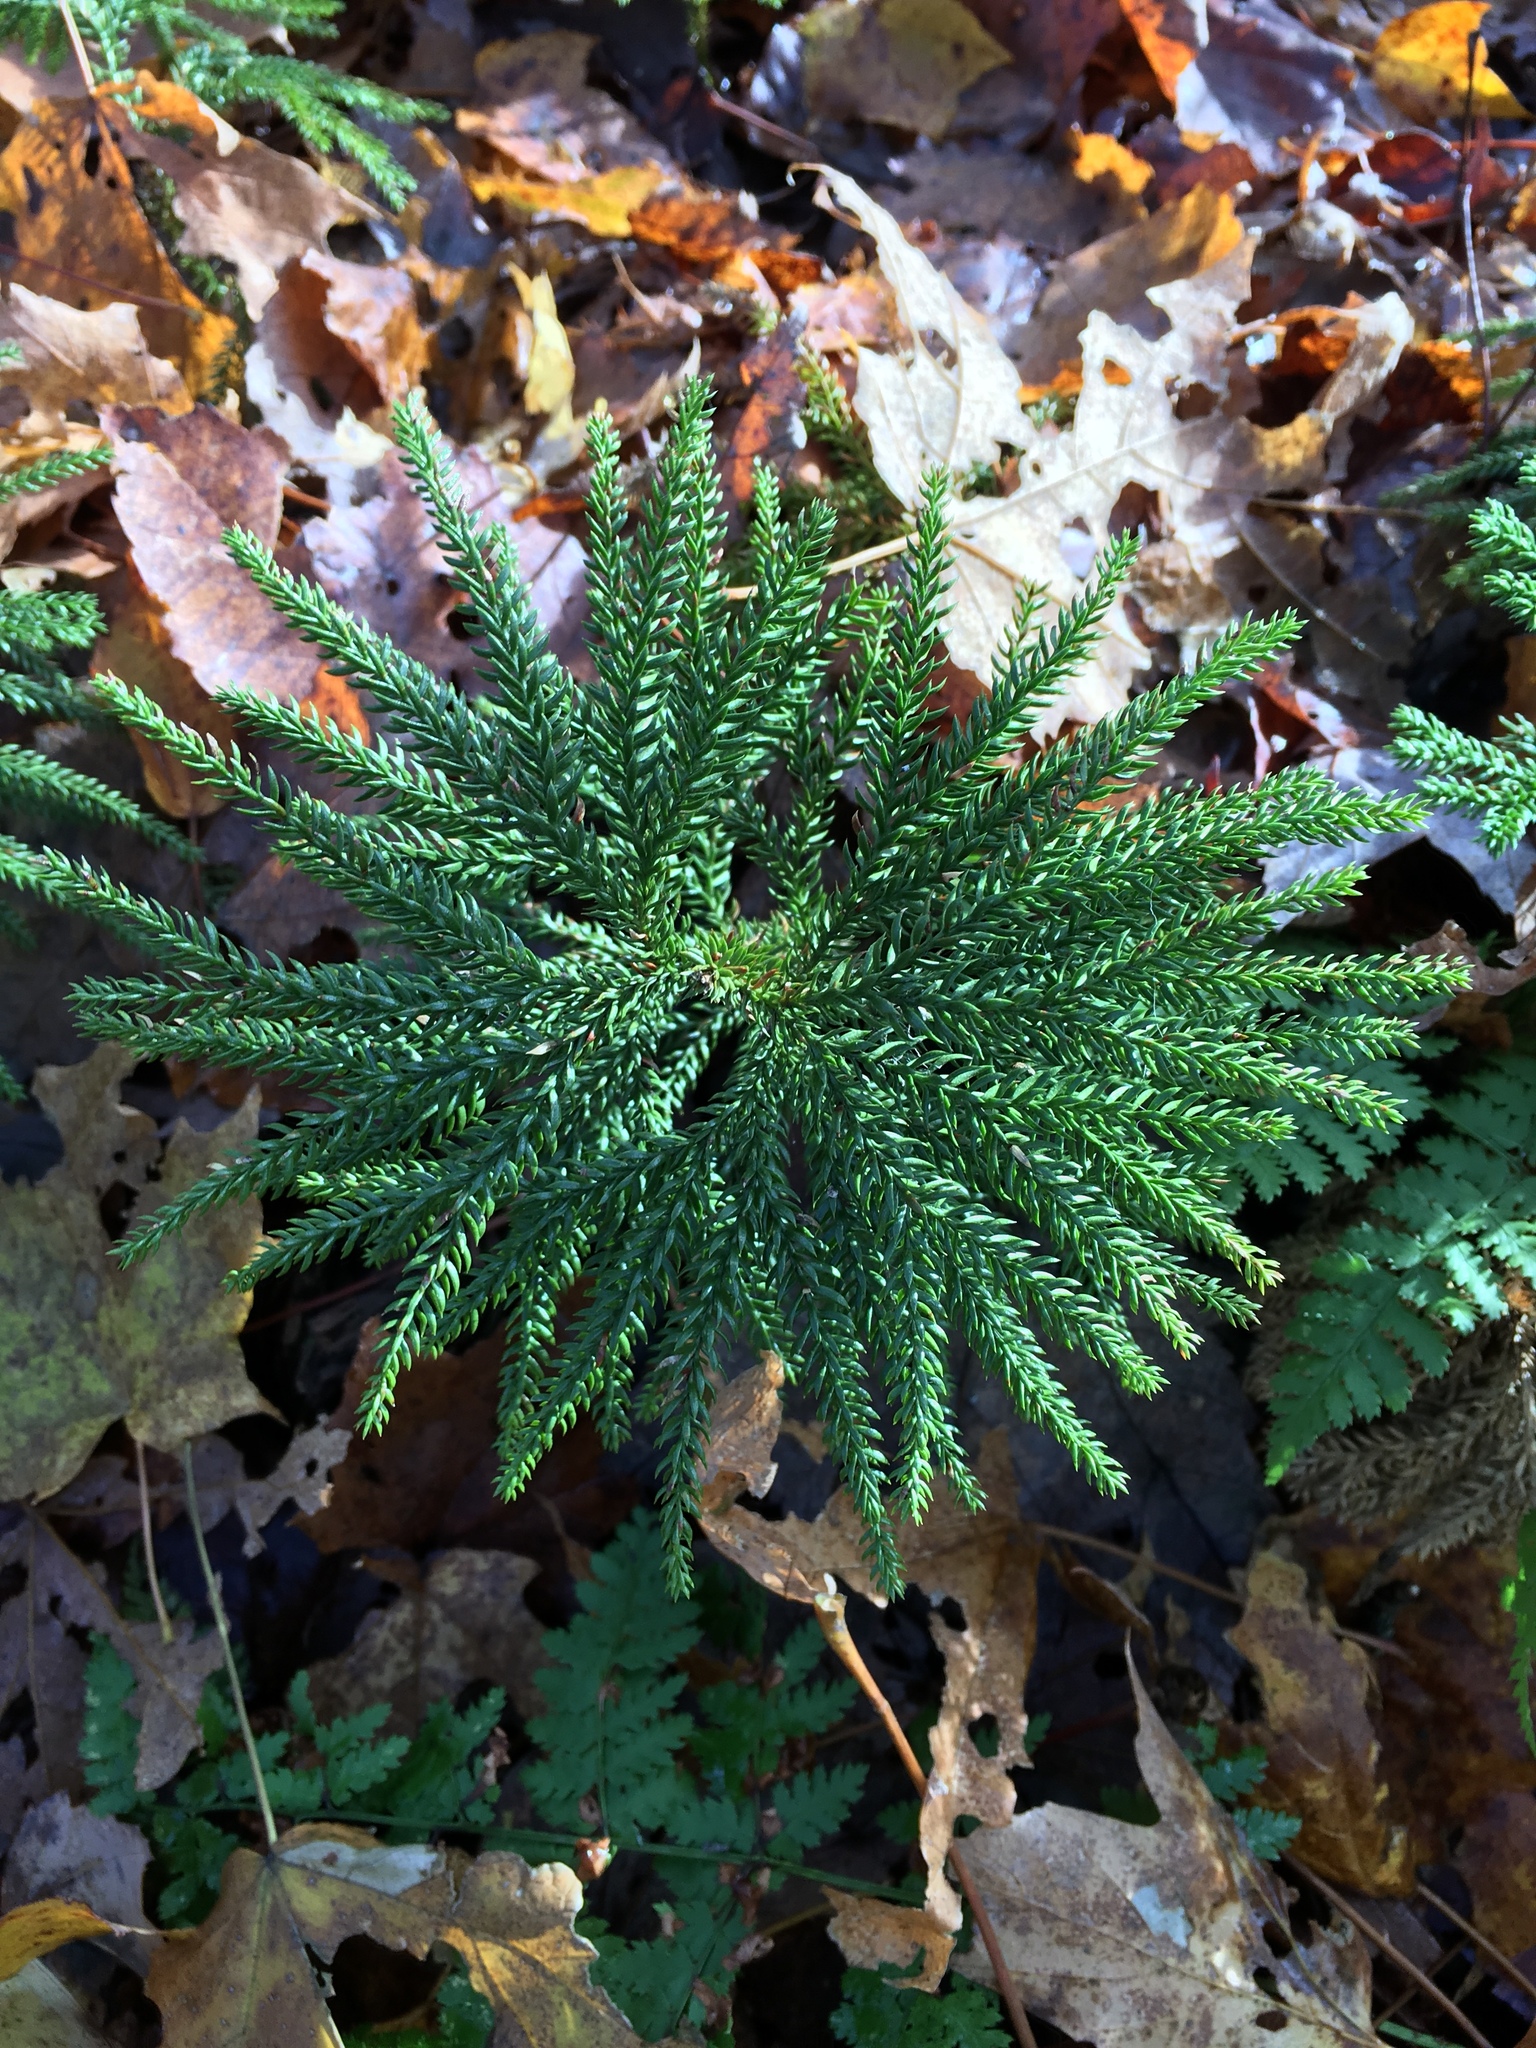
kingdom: Plantae
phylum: Tracheophyta
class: Lycopodiopsida
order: Lycopodiales
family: Lycopodiaceae
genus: Dendrolycopodium
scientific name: Dendrolycopodium dendroideum
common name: Northern tree-clubmoss
